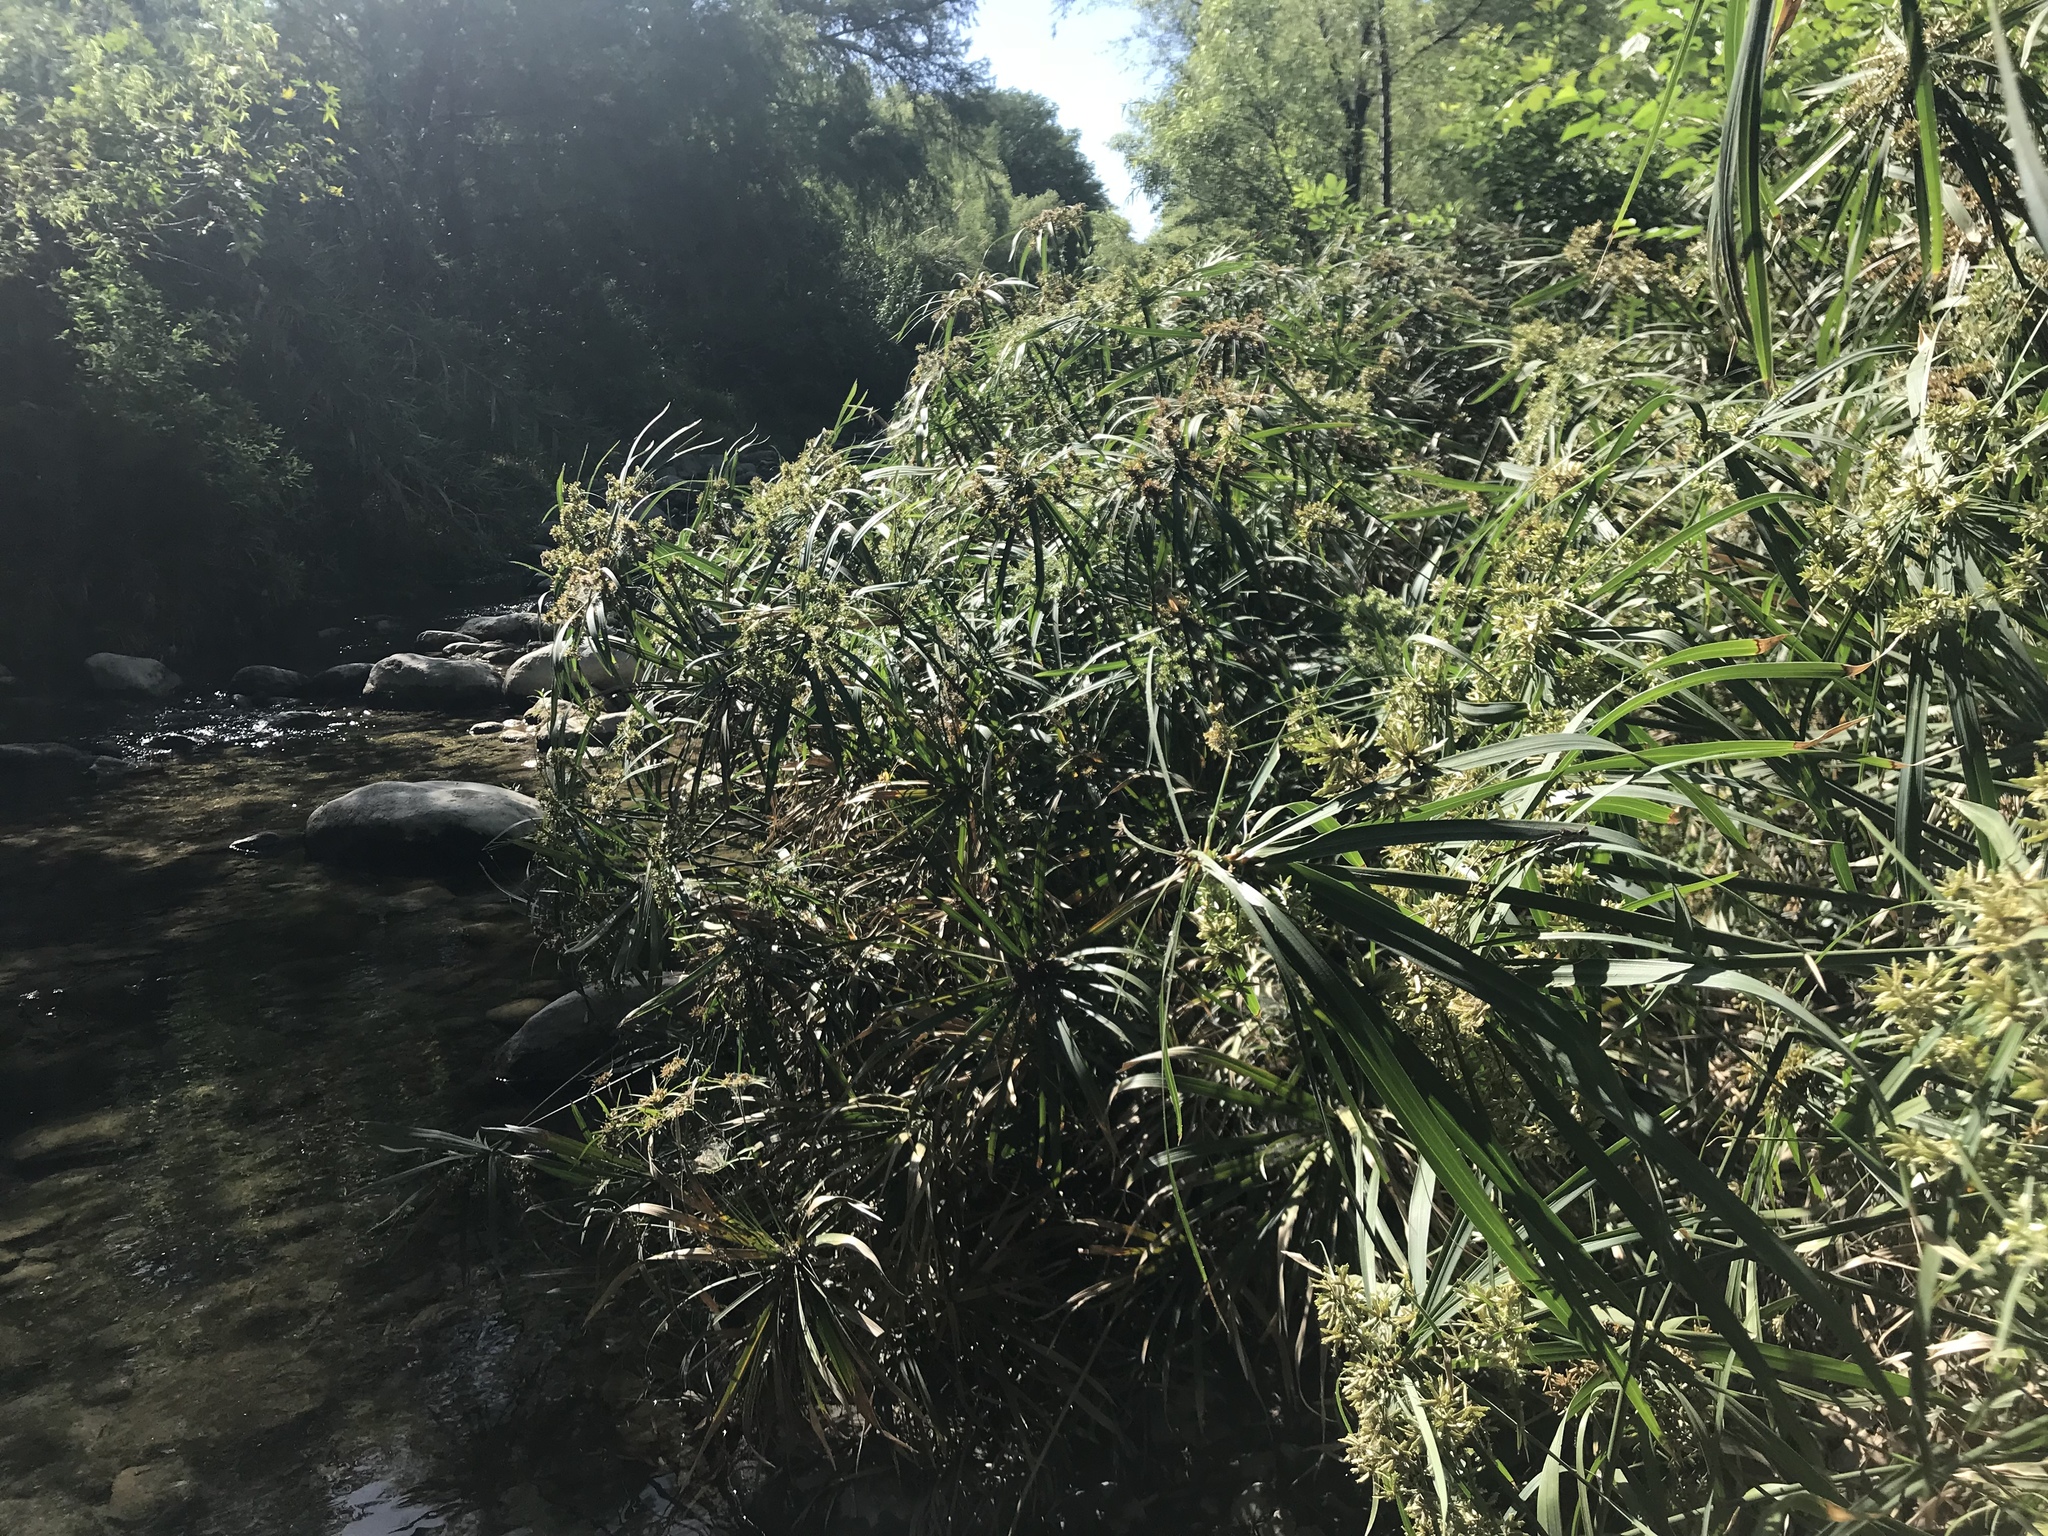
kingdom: Plantae
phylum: Tracheophyta
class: Liliopsida
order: Poales
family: Cyperaceae
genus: Cyperus
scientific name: Cyperus alternifolius
